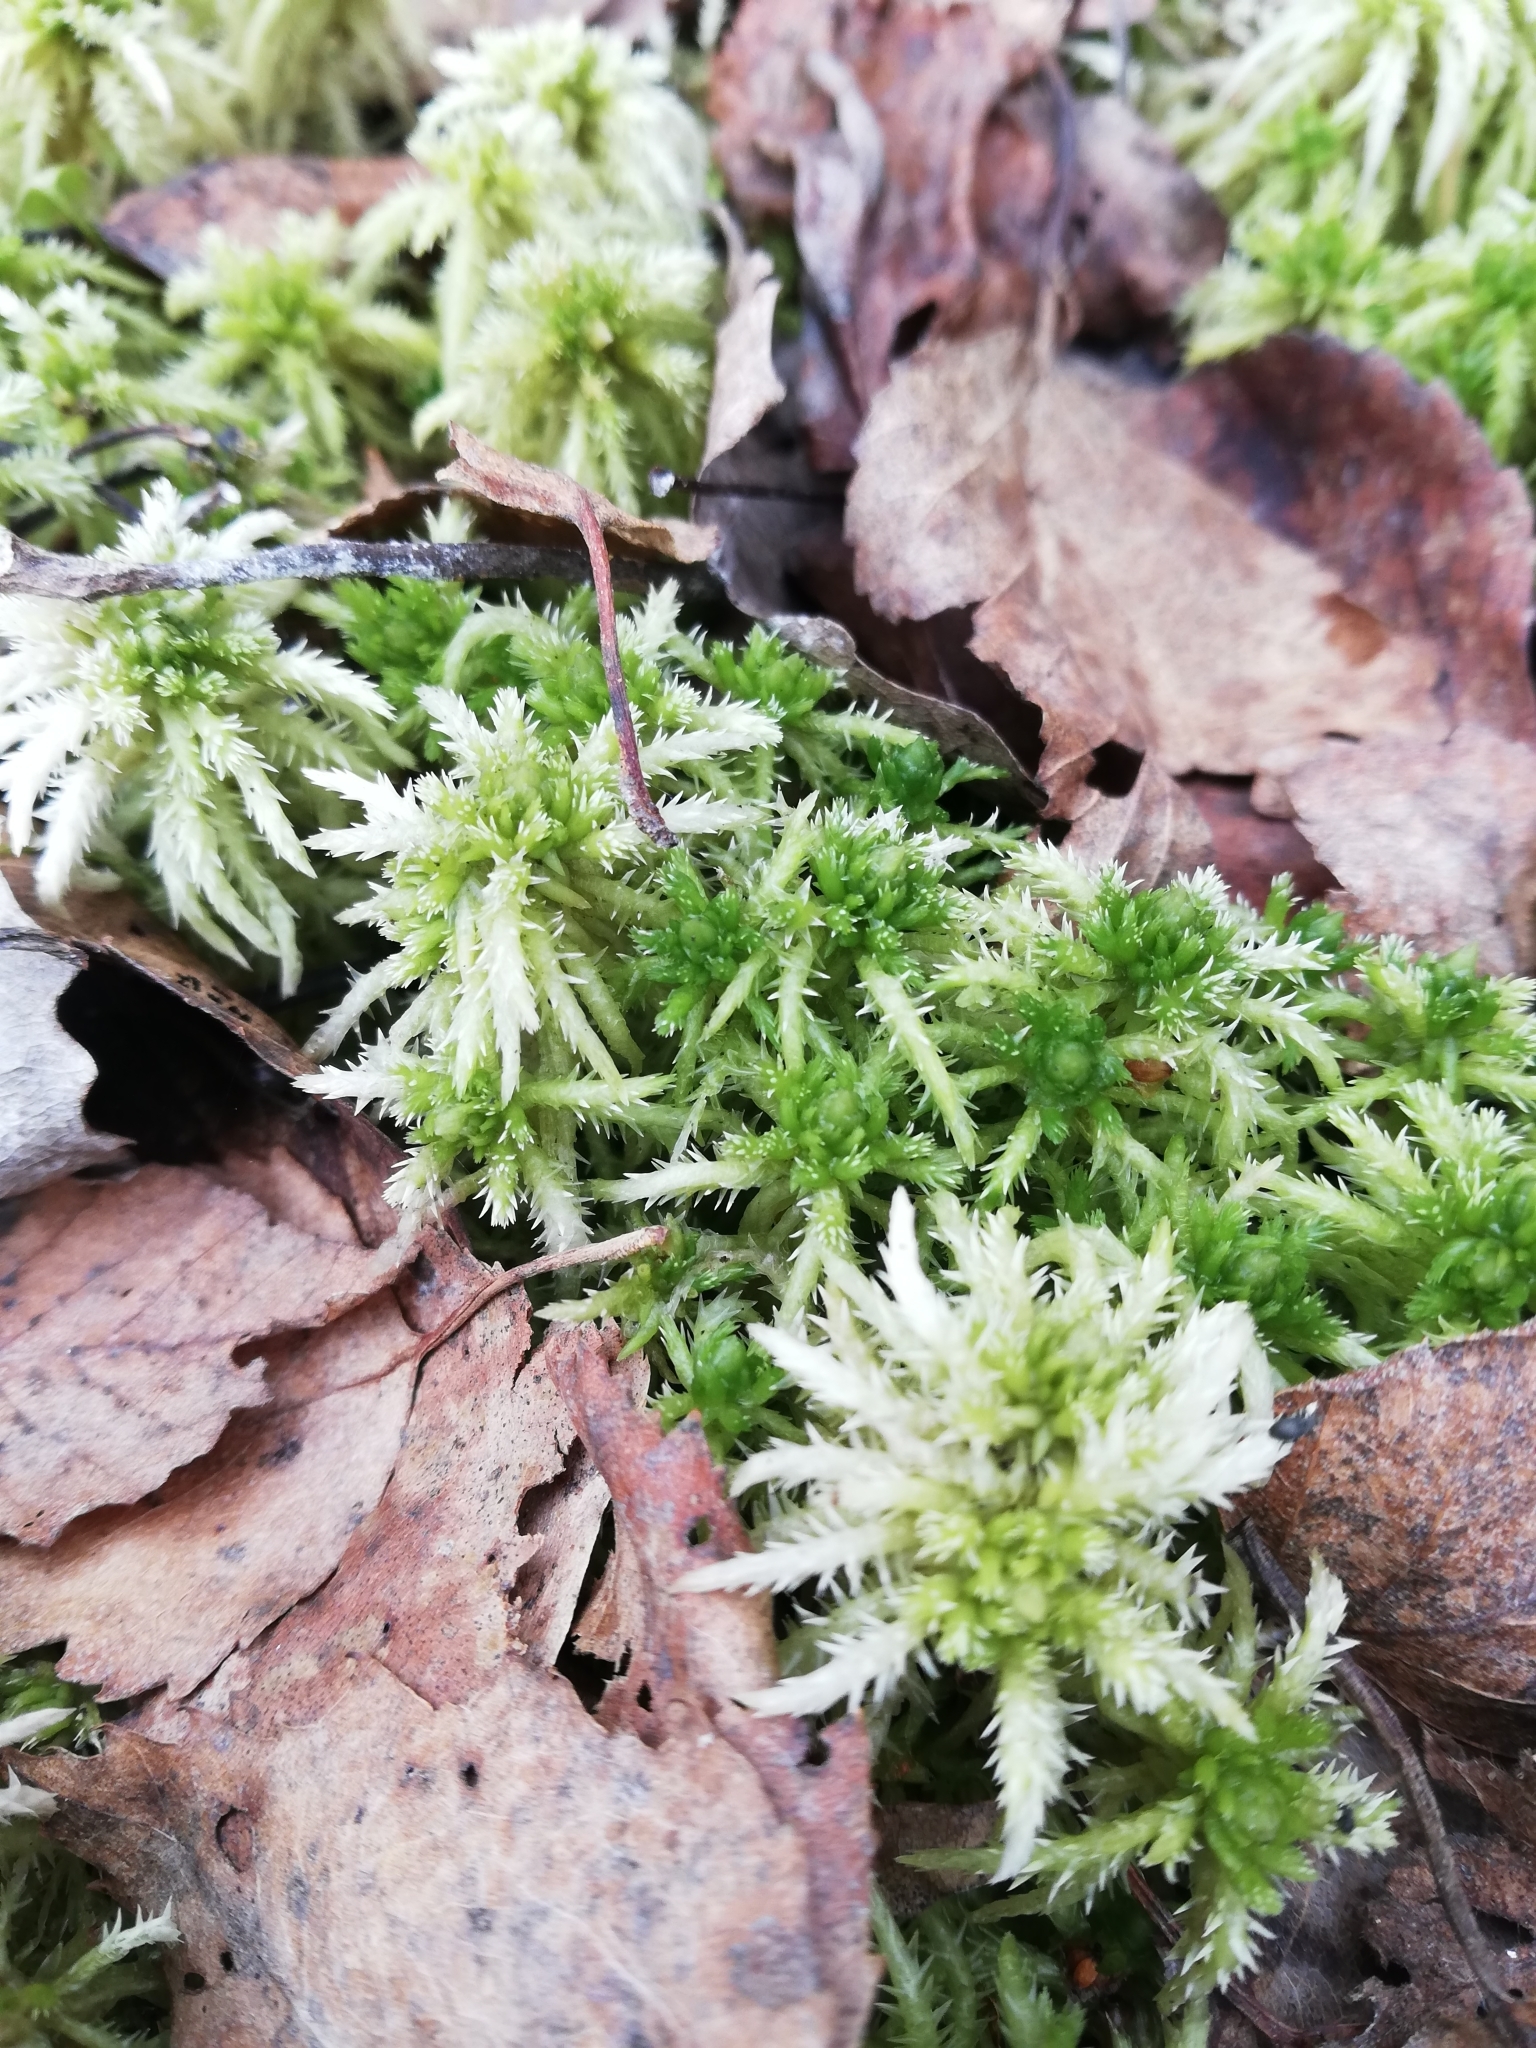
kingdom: Plantae
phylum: Bryophyta
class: Sphagnopsida
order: Sphagnales
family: Sphagnaceae
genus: Sphagnum
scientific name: Sphagnum squarrosum
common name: Shaggy peat moss
